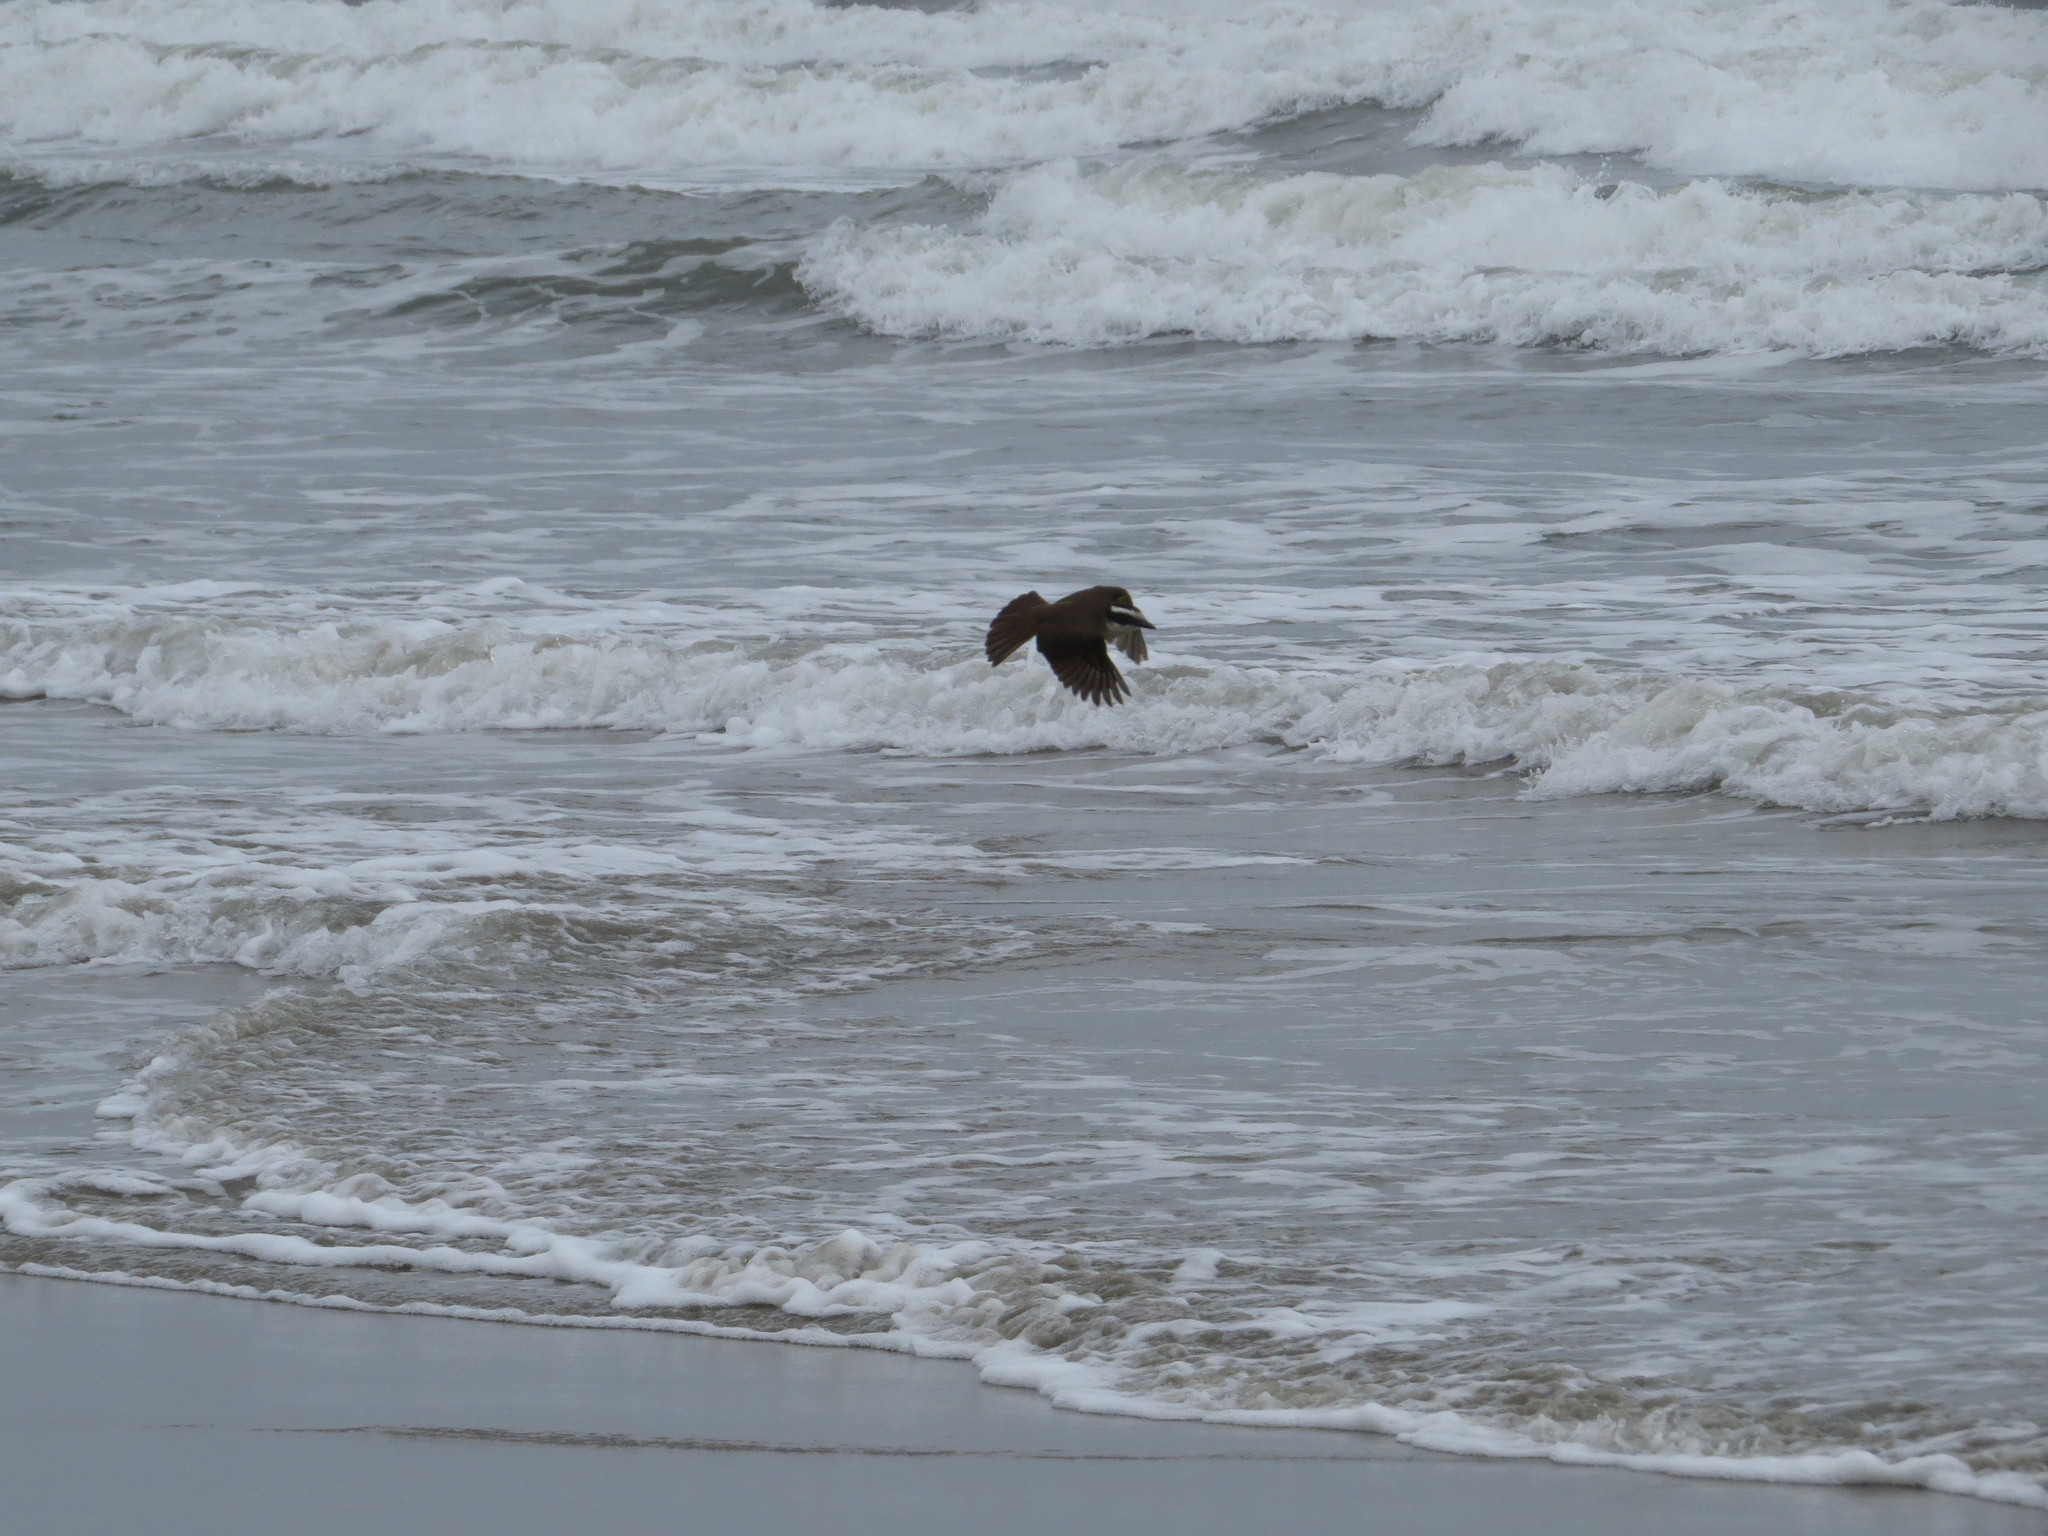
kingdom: Animalia
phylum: Chordata
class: Aves
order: Passeriformes
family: Tyrannidae
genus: Pitangus
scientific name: Pitangus sulphuratus
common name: Great kiskadee
